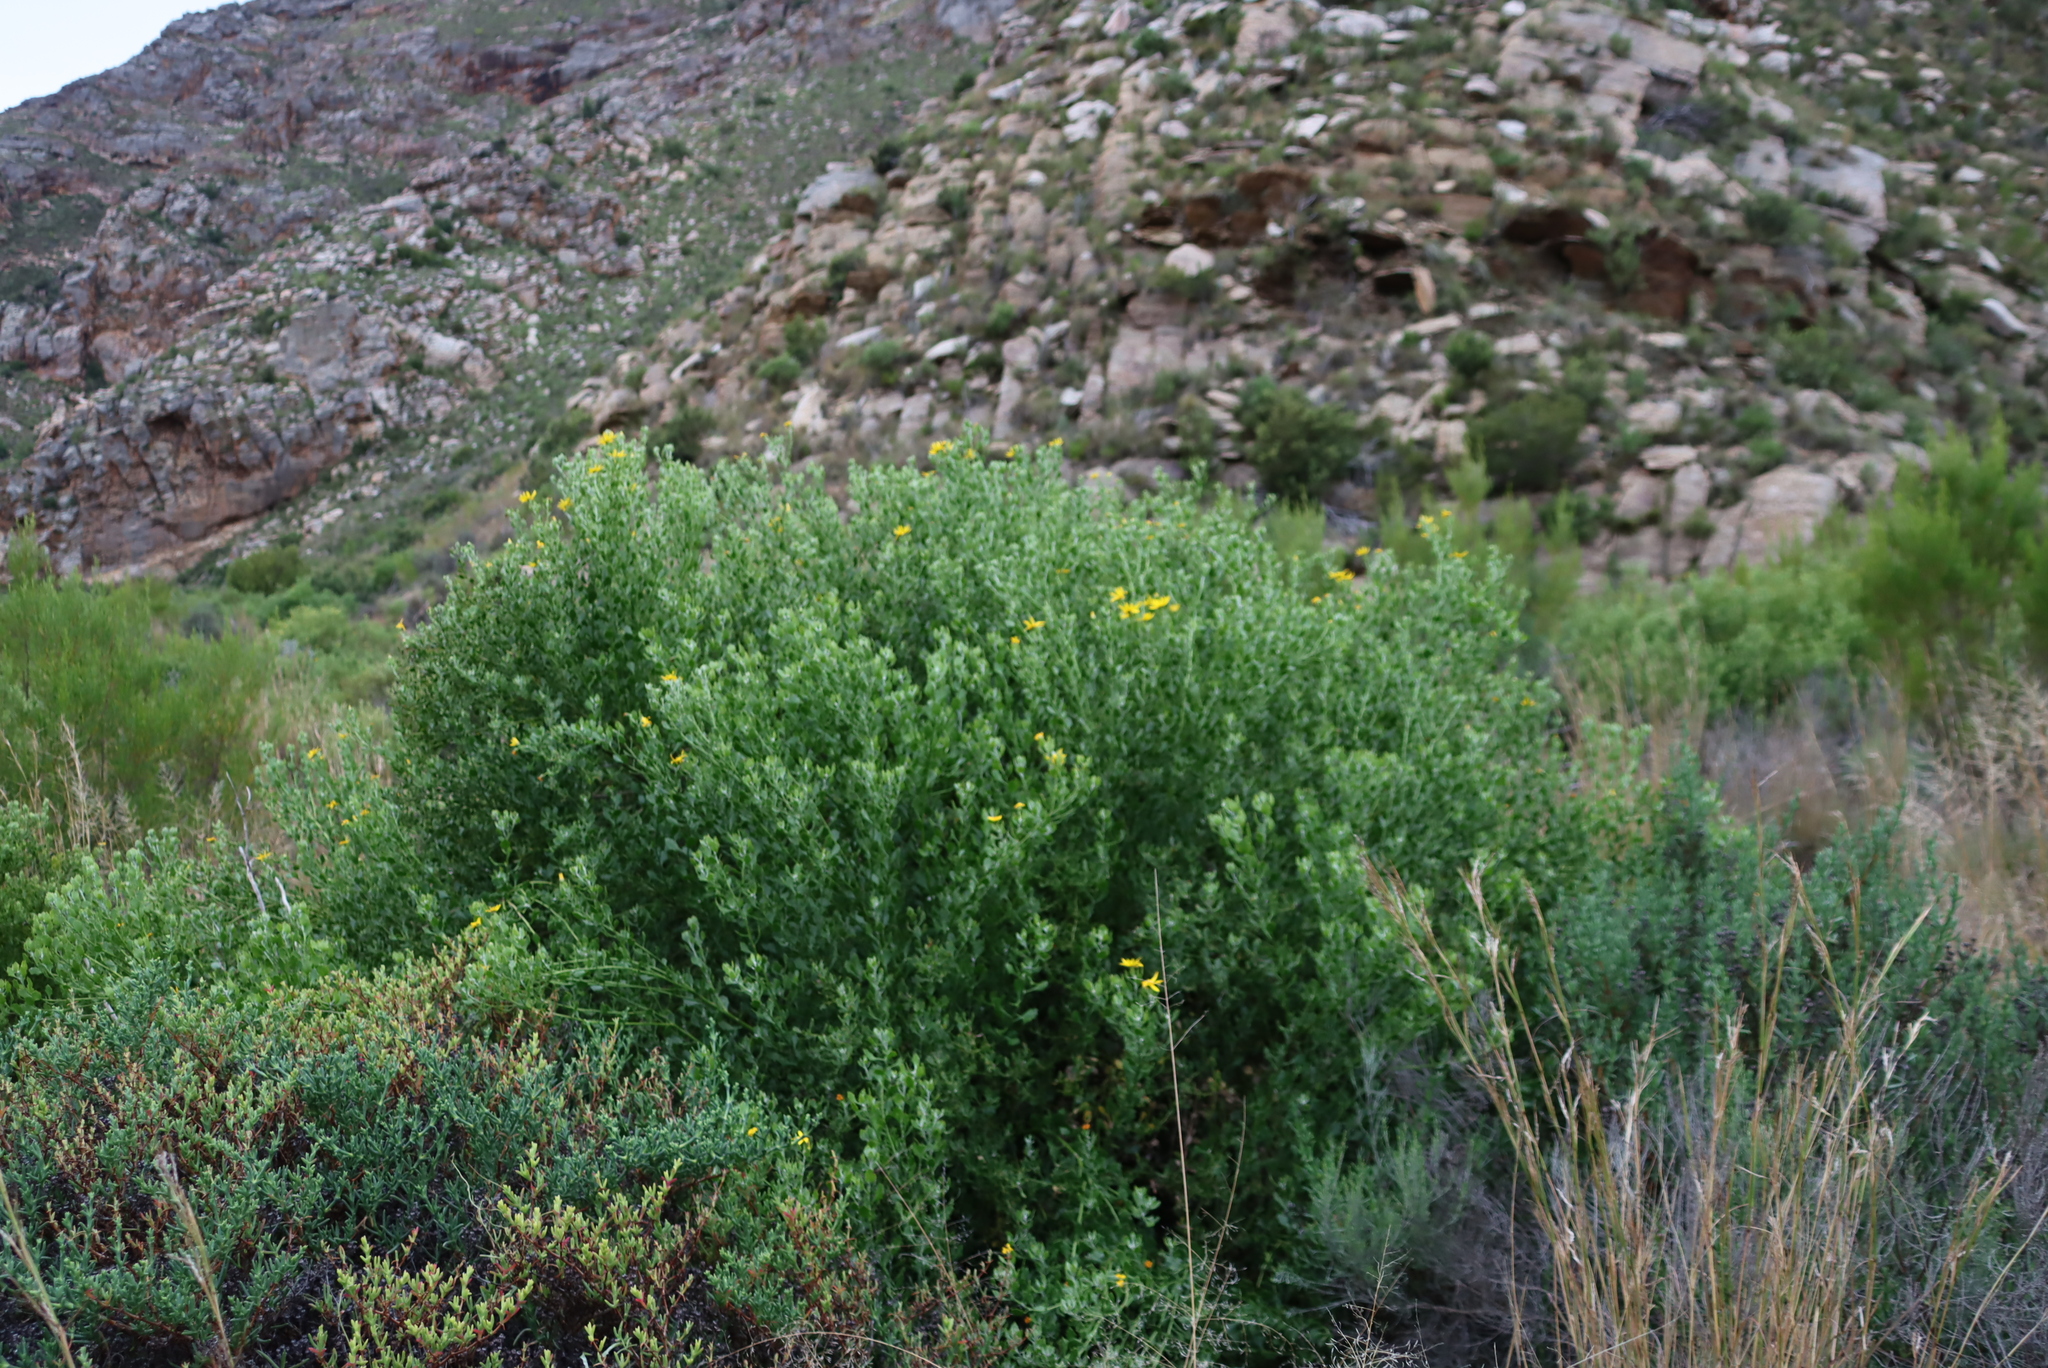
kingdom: Plantae
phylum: Tracheophyta
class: Magnoliopsida
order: Asterales
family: Asteraceae
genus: Osteospermum
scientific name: Osteospermum moniliferum
